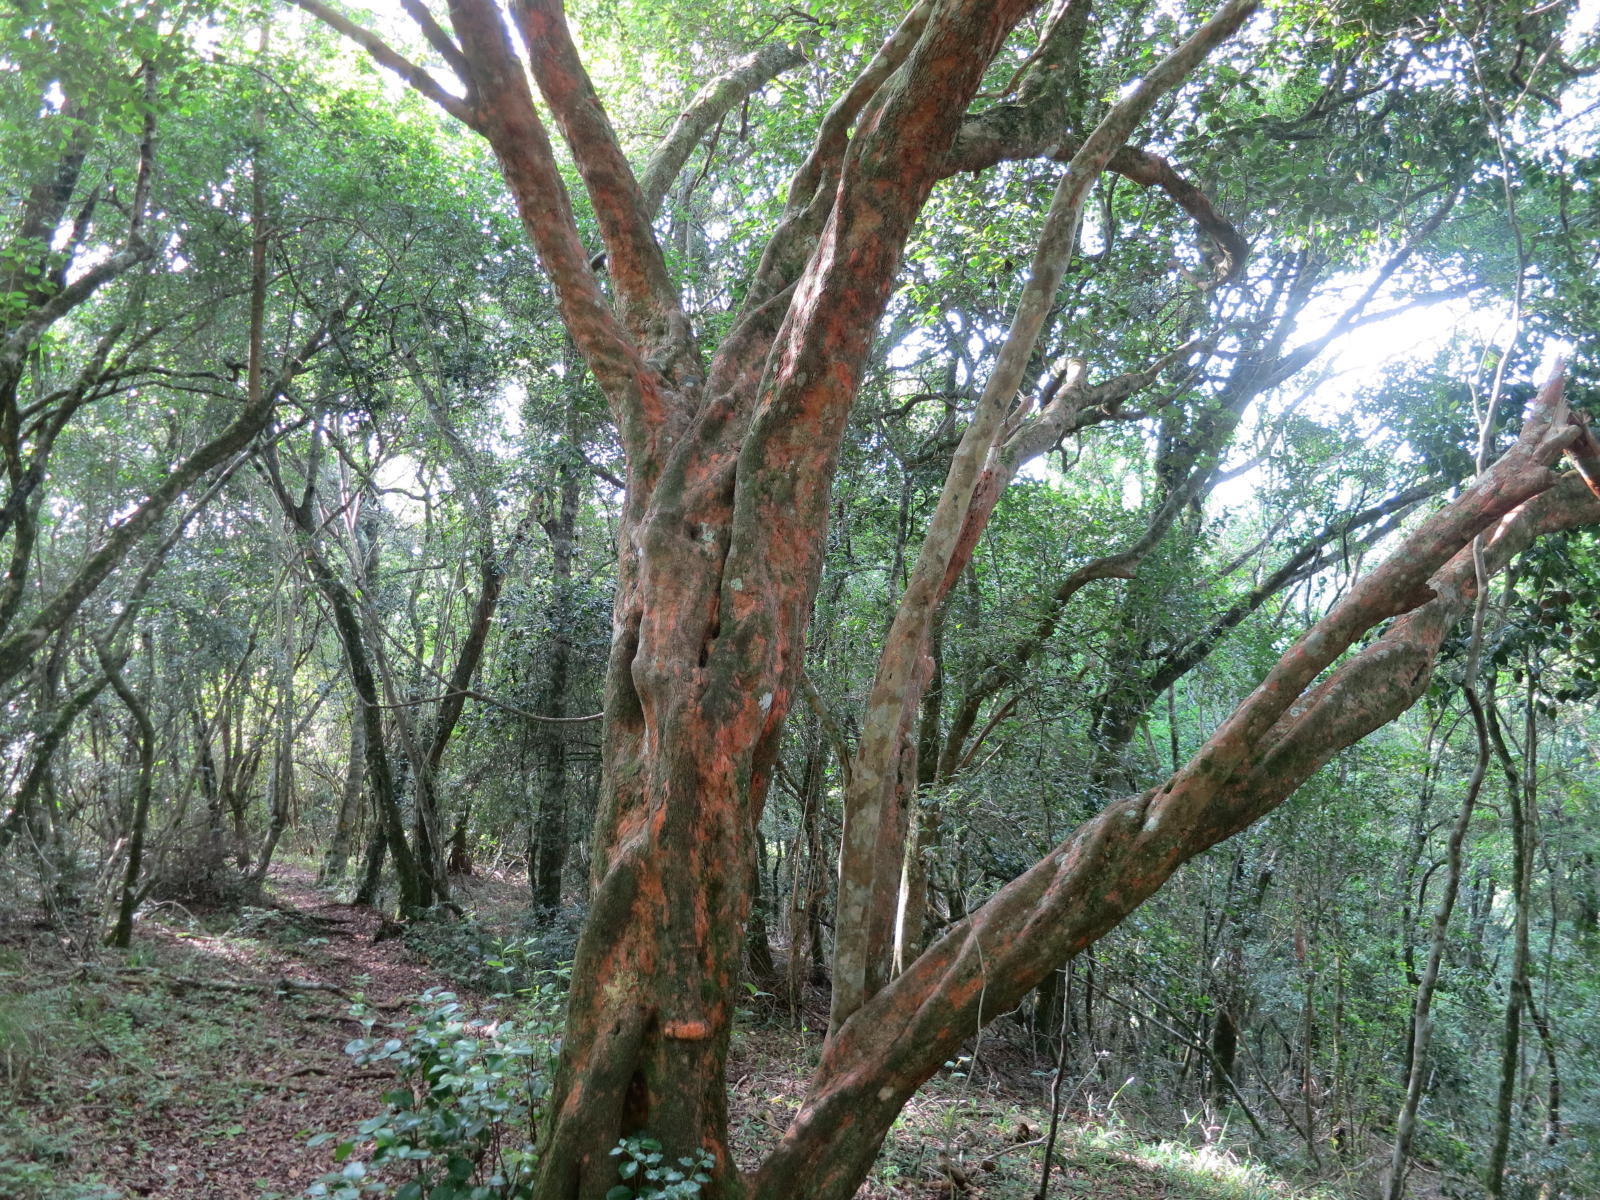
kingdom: Plantae
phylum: Tracheophyta
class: Magnoliopsida
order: Celastrales
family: Celastraceae
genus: Cassine
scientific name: Cassine peragua
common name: Cape saffron
